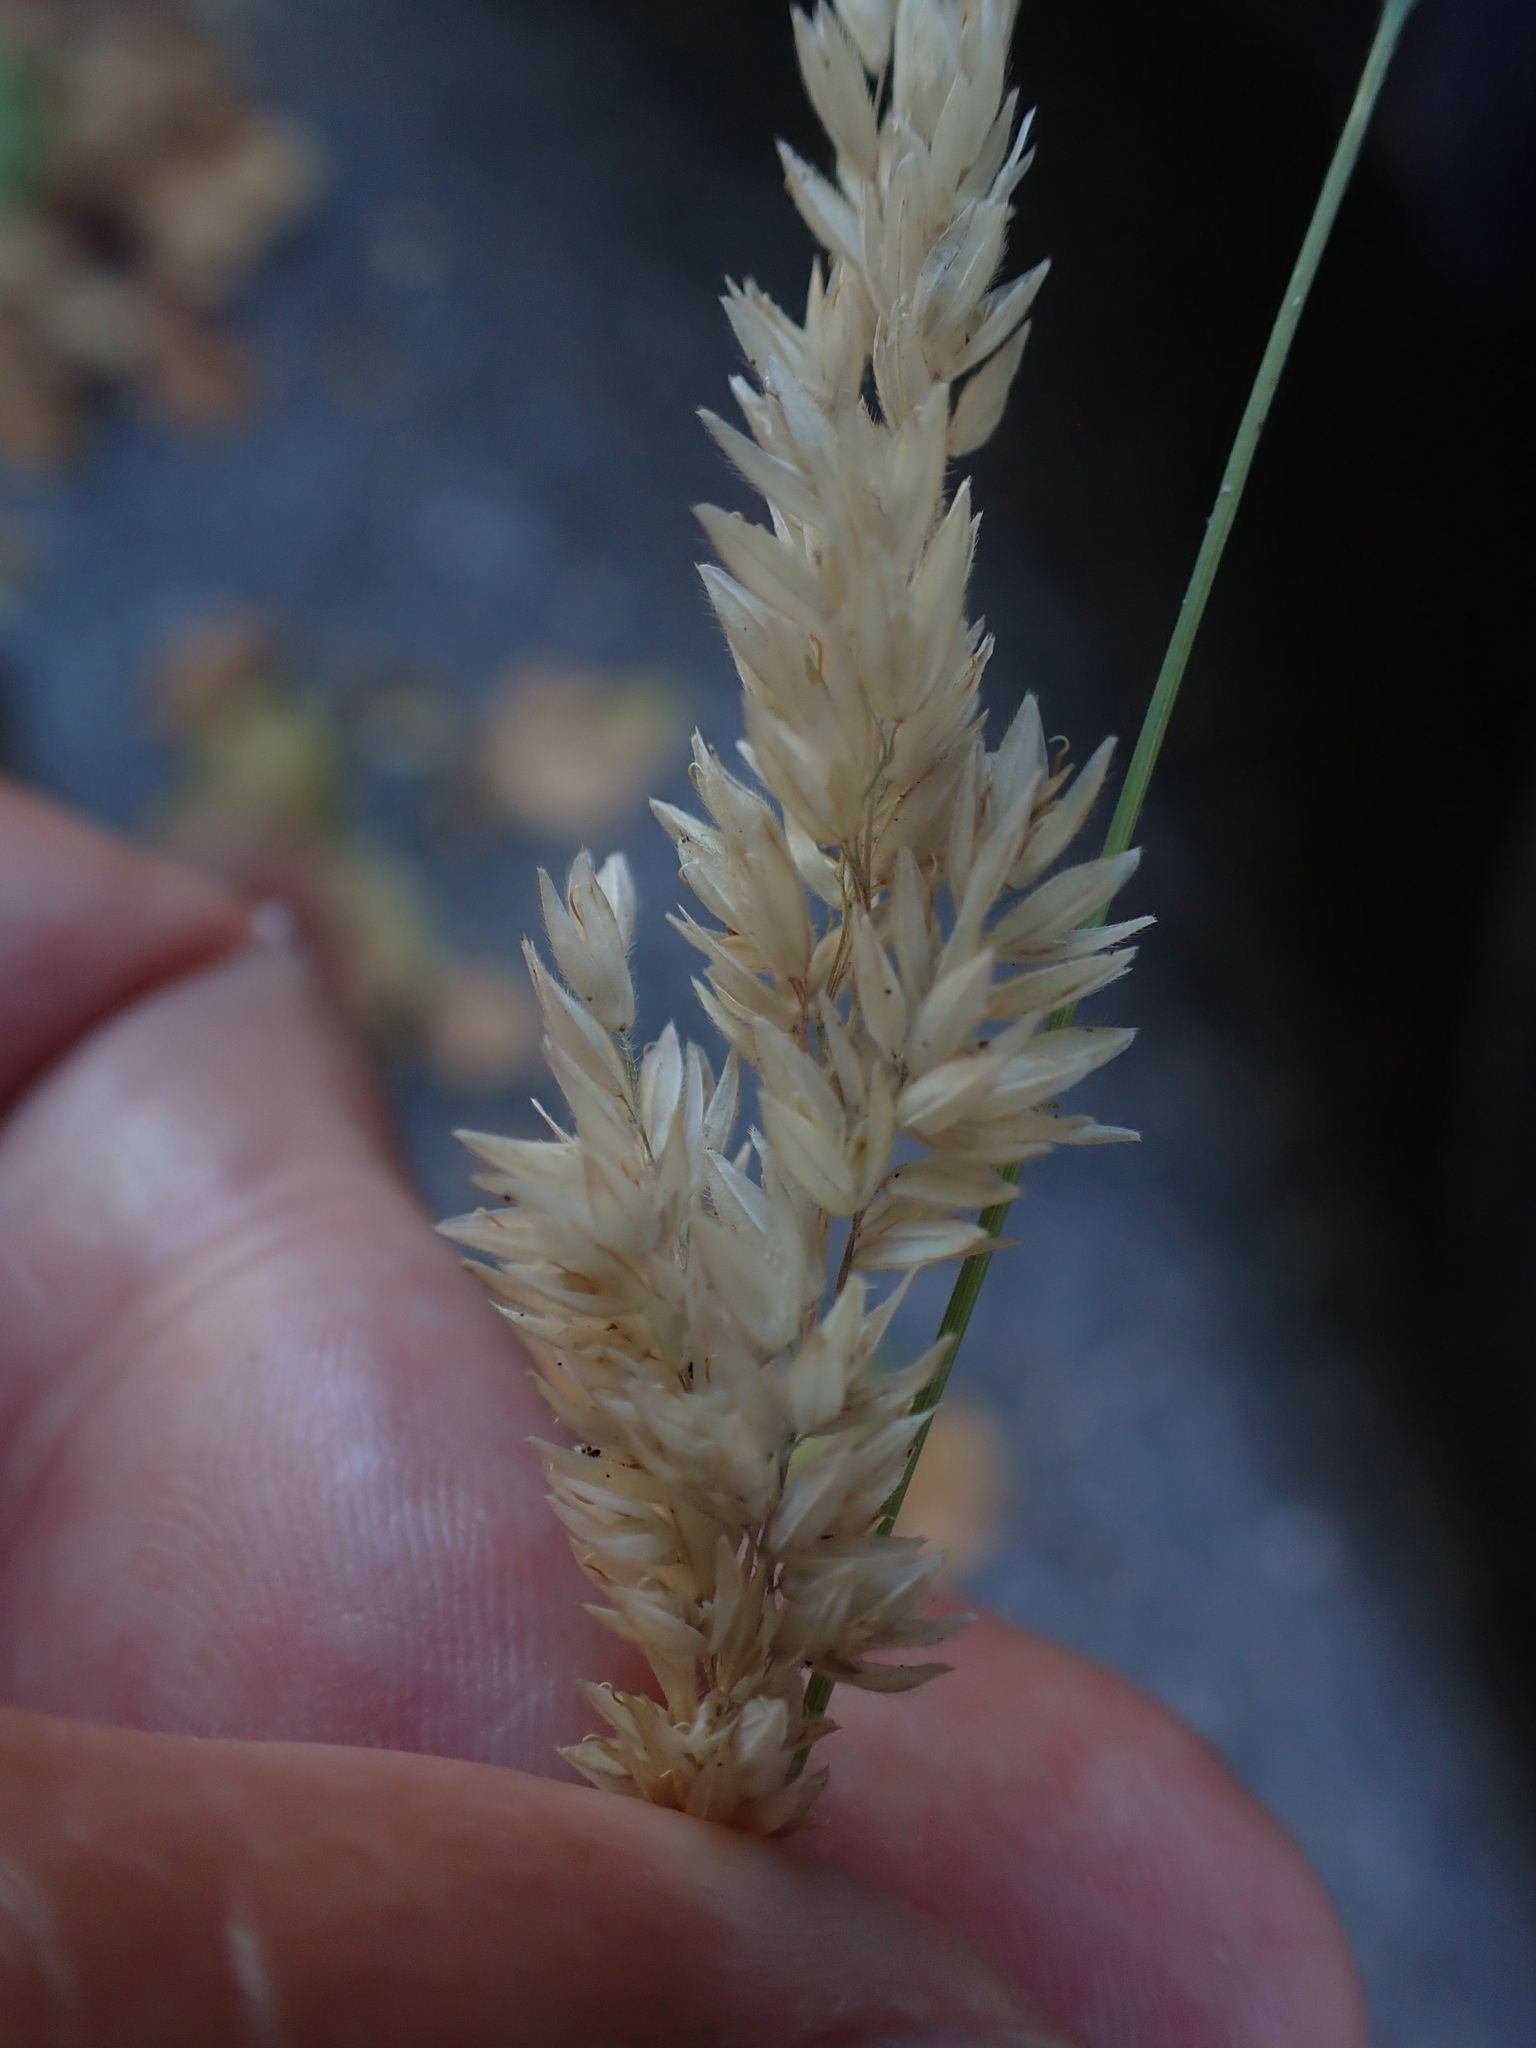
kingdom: Plantae
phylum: Tracheophyta
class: Liliopsida
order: Poales
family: Poaceae
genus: Holcus
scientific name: Holcus lanatus
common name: Yorkshire-fog
